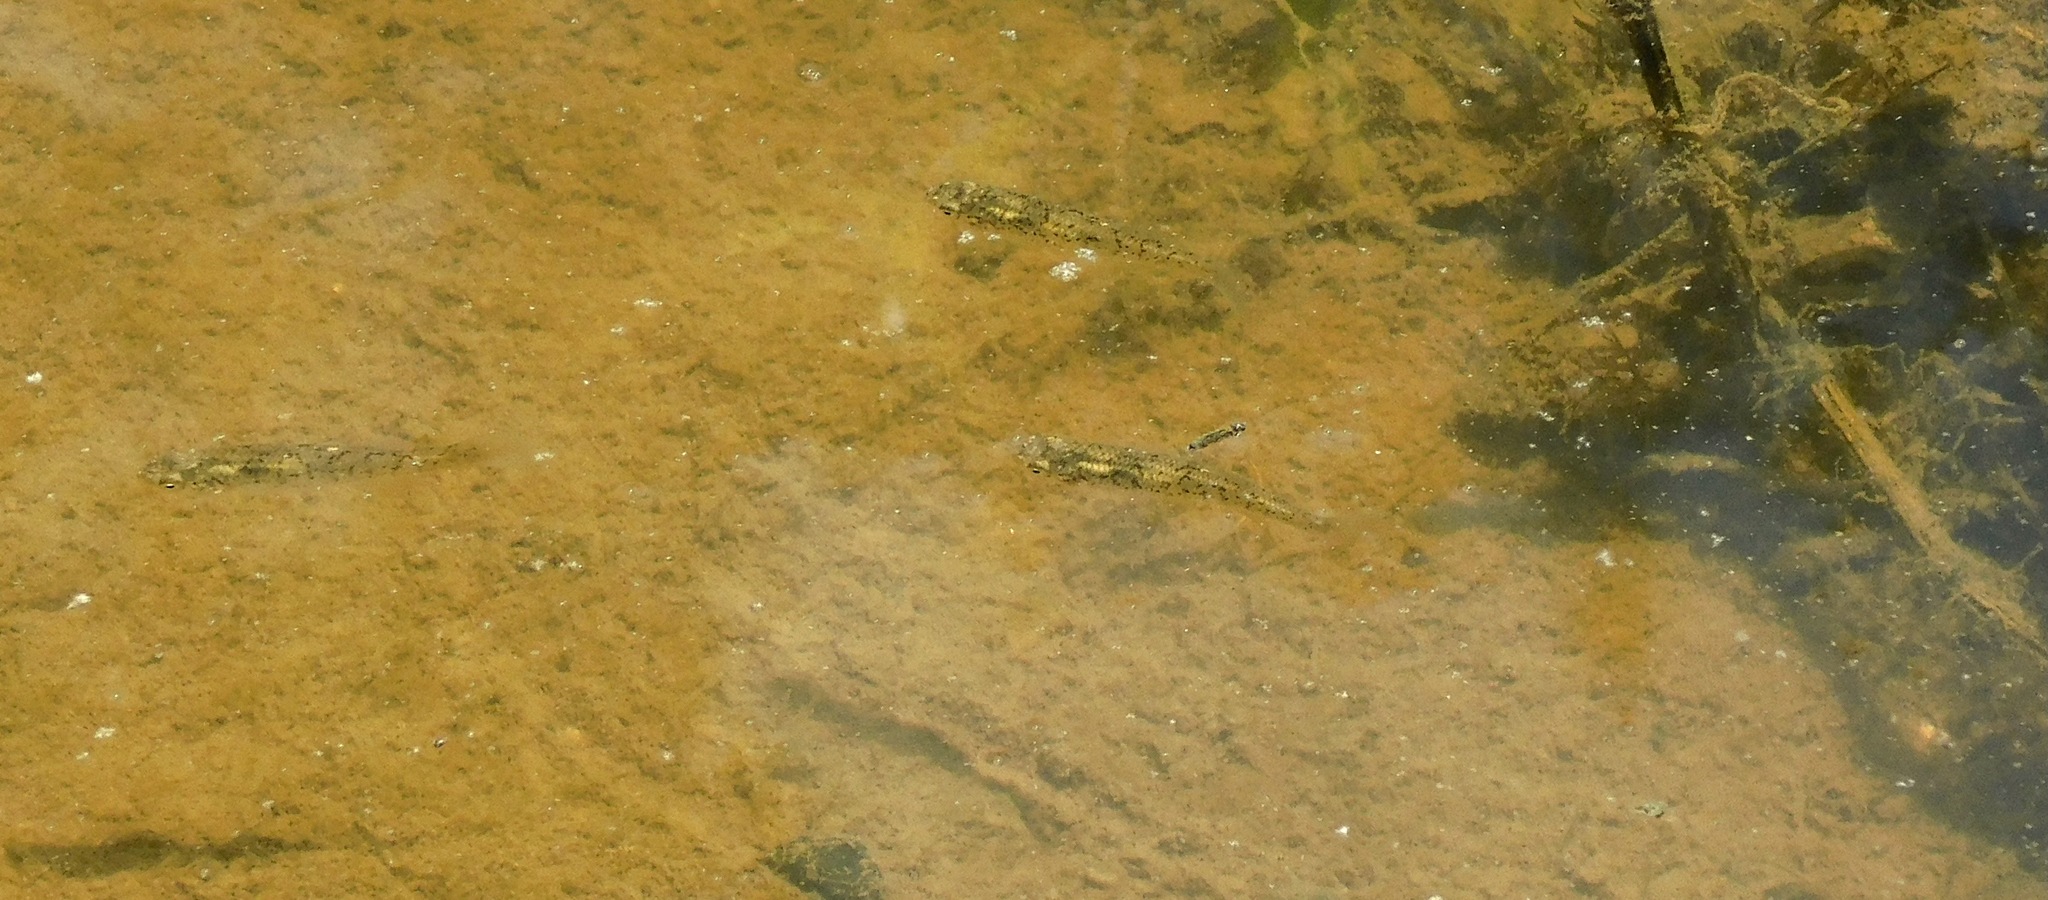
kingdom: Animalia
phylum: Chordata
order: Cyprinodontiformes
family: Fundulidae
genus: Fundulus
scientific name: Fundulus rathbuni
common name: Speckled killifish
